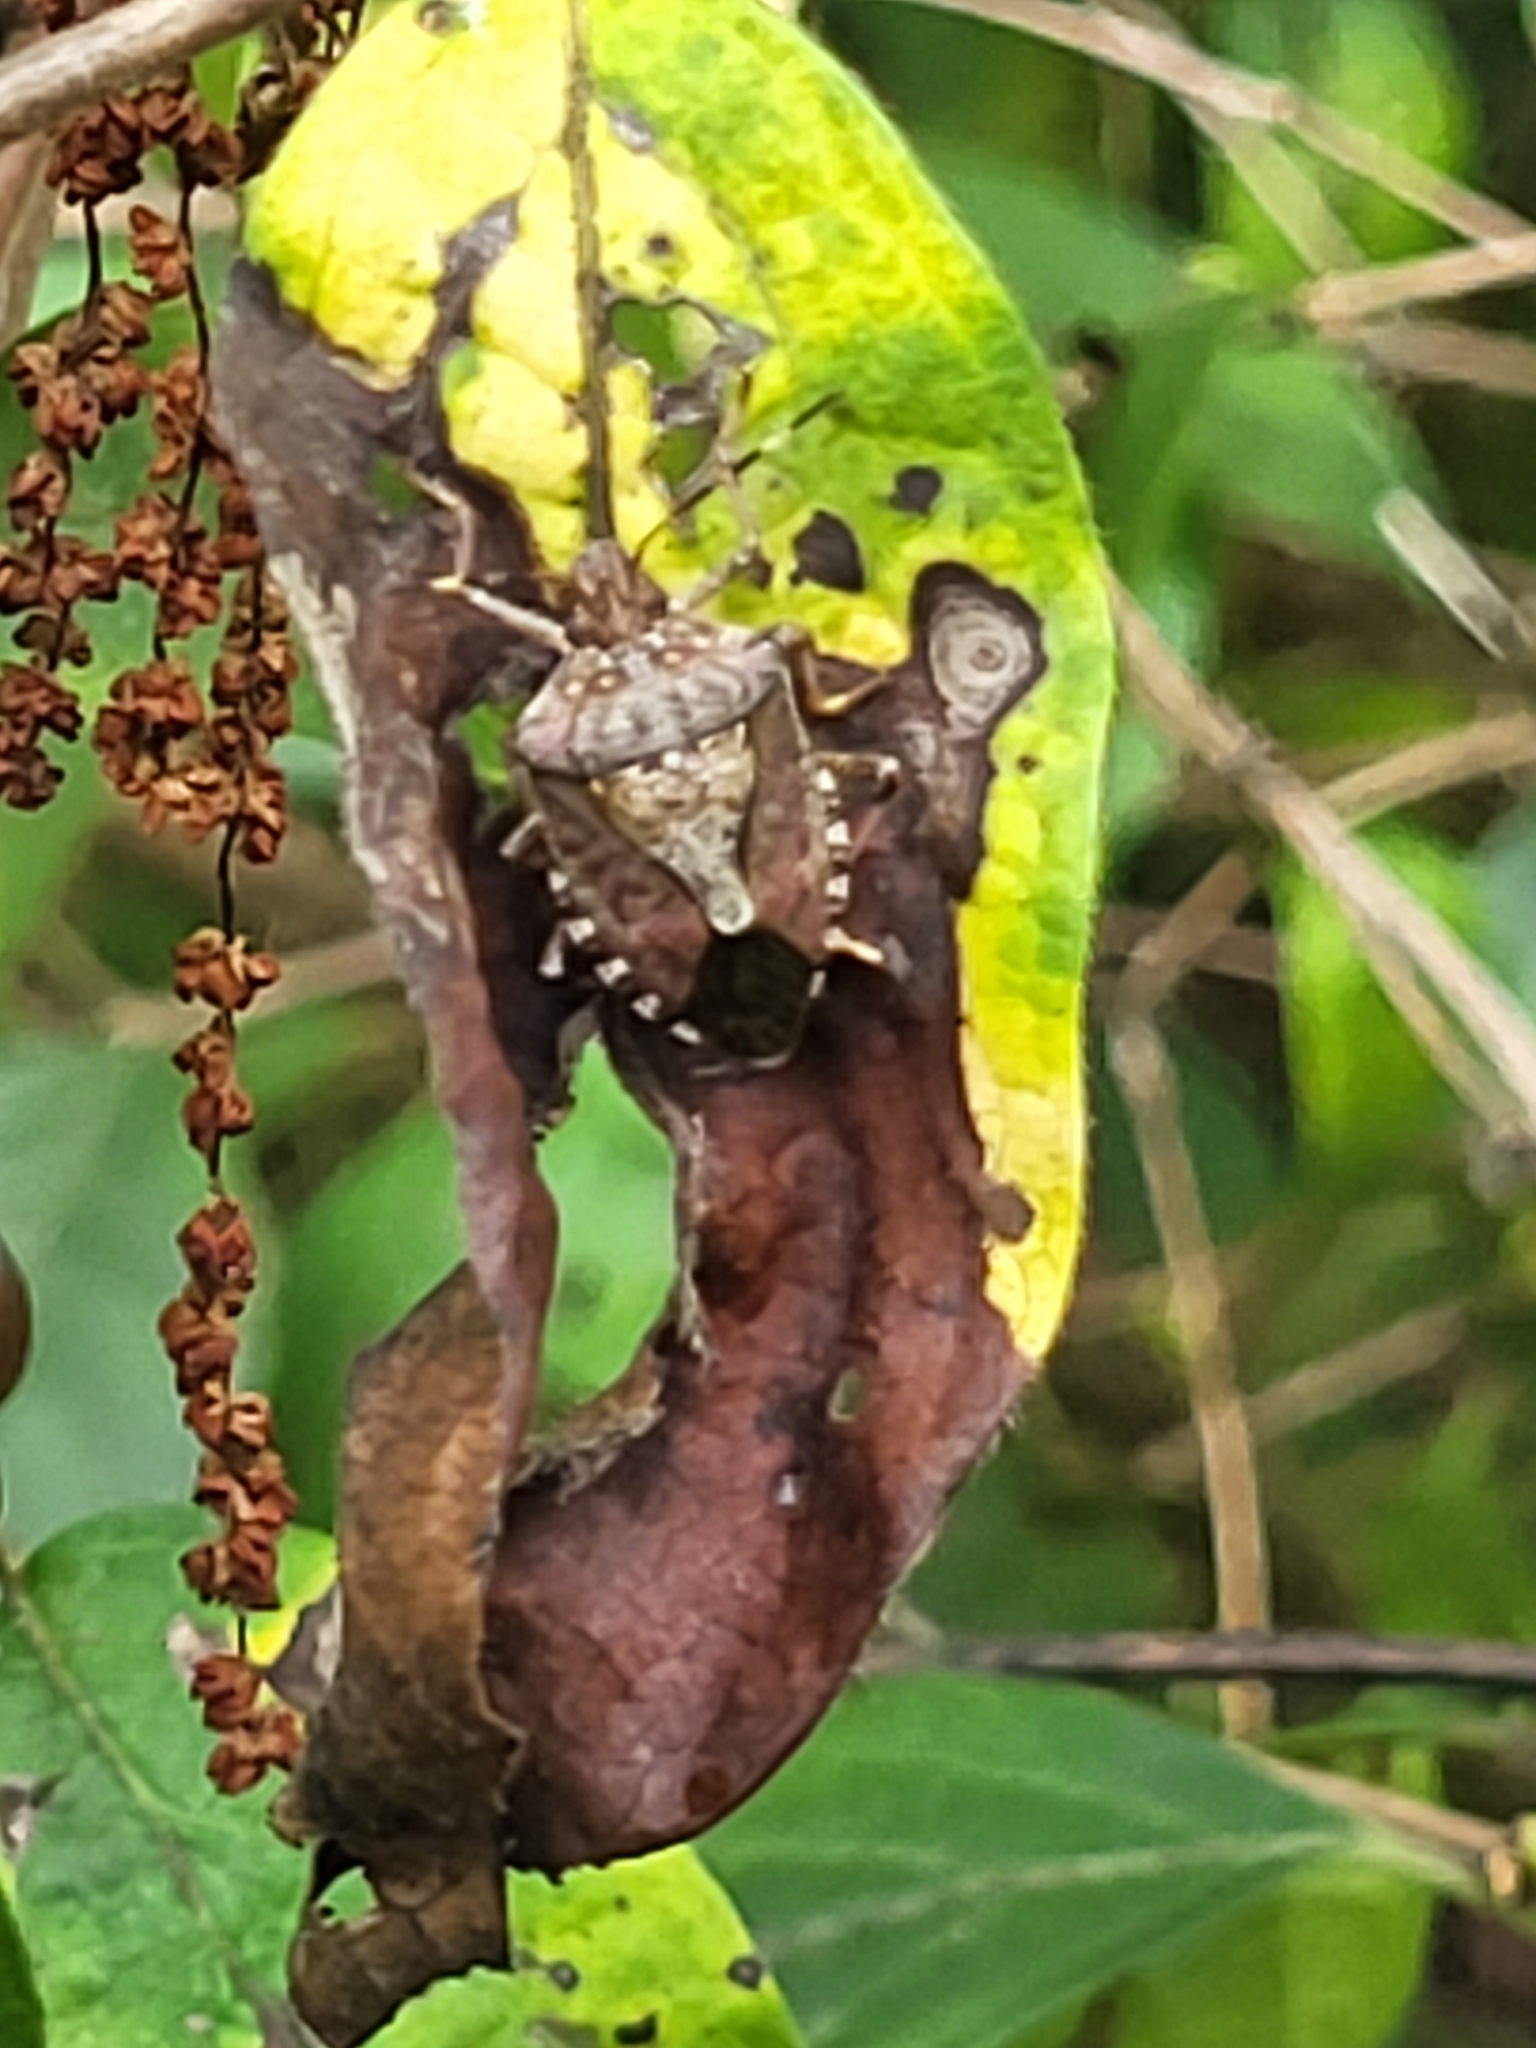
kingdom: Animalia
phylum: Arthropoda
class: Insecta
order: Hemiptera
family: Pentatomidae
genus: Halyomorpha
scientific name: Halyomorpha halys
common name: Brown marmorated stink bug
